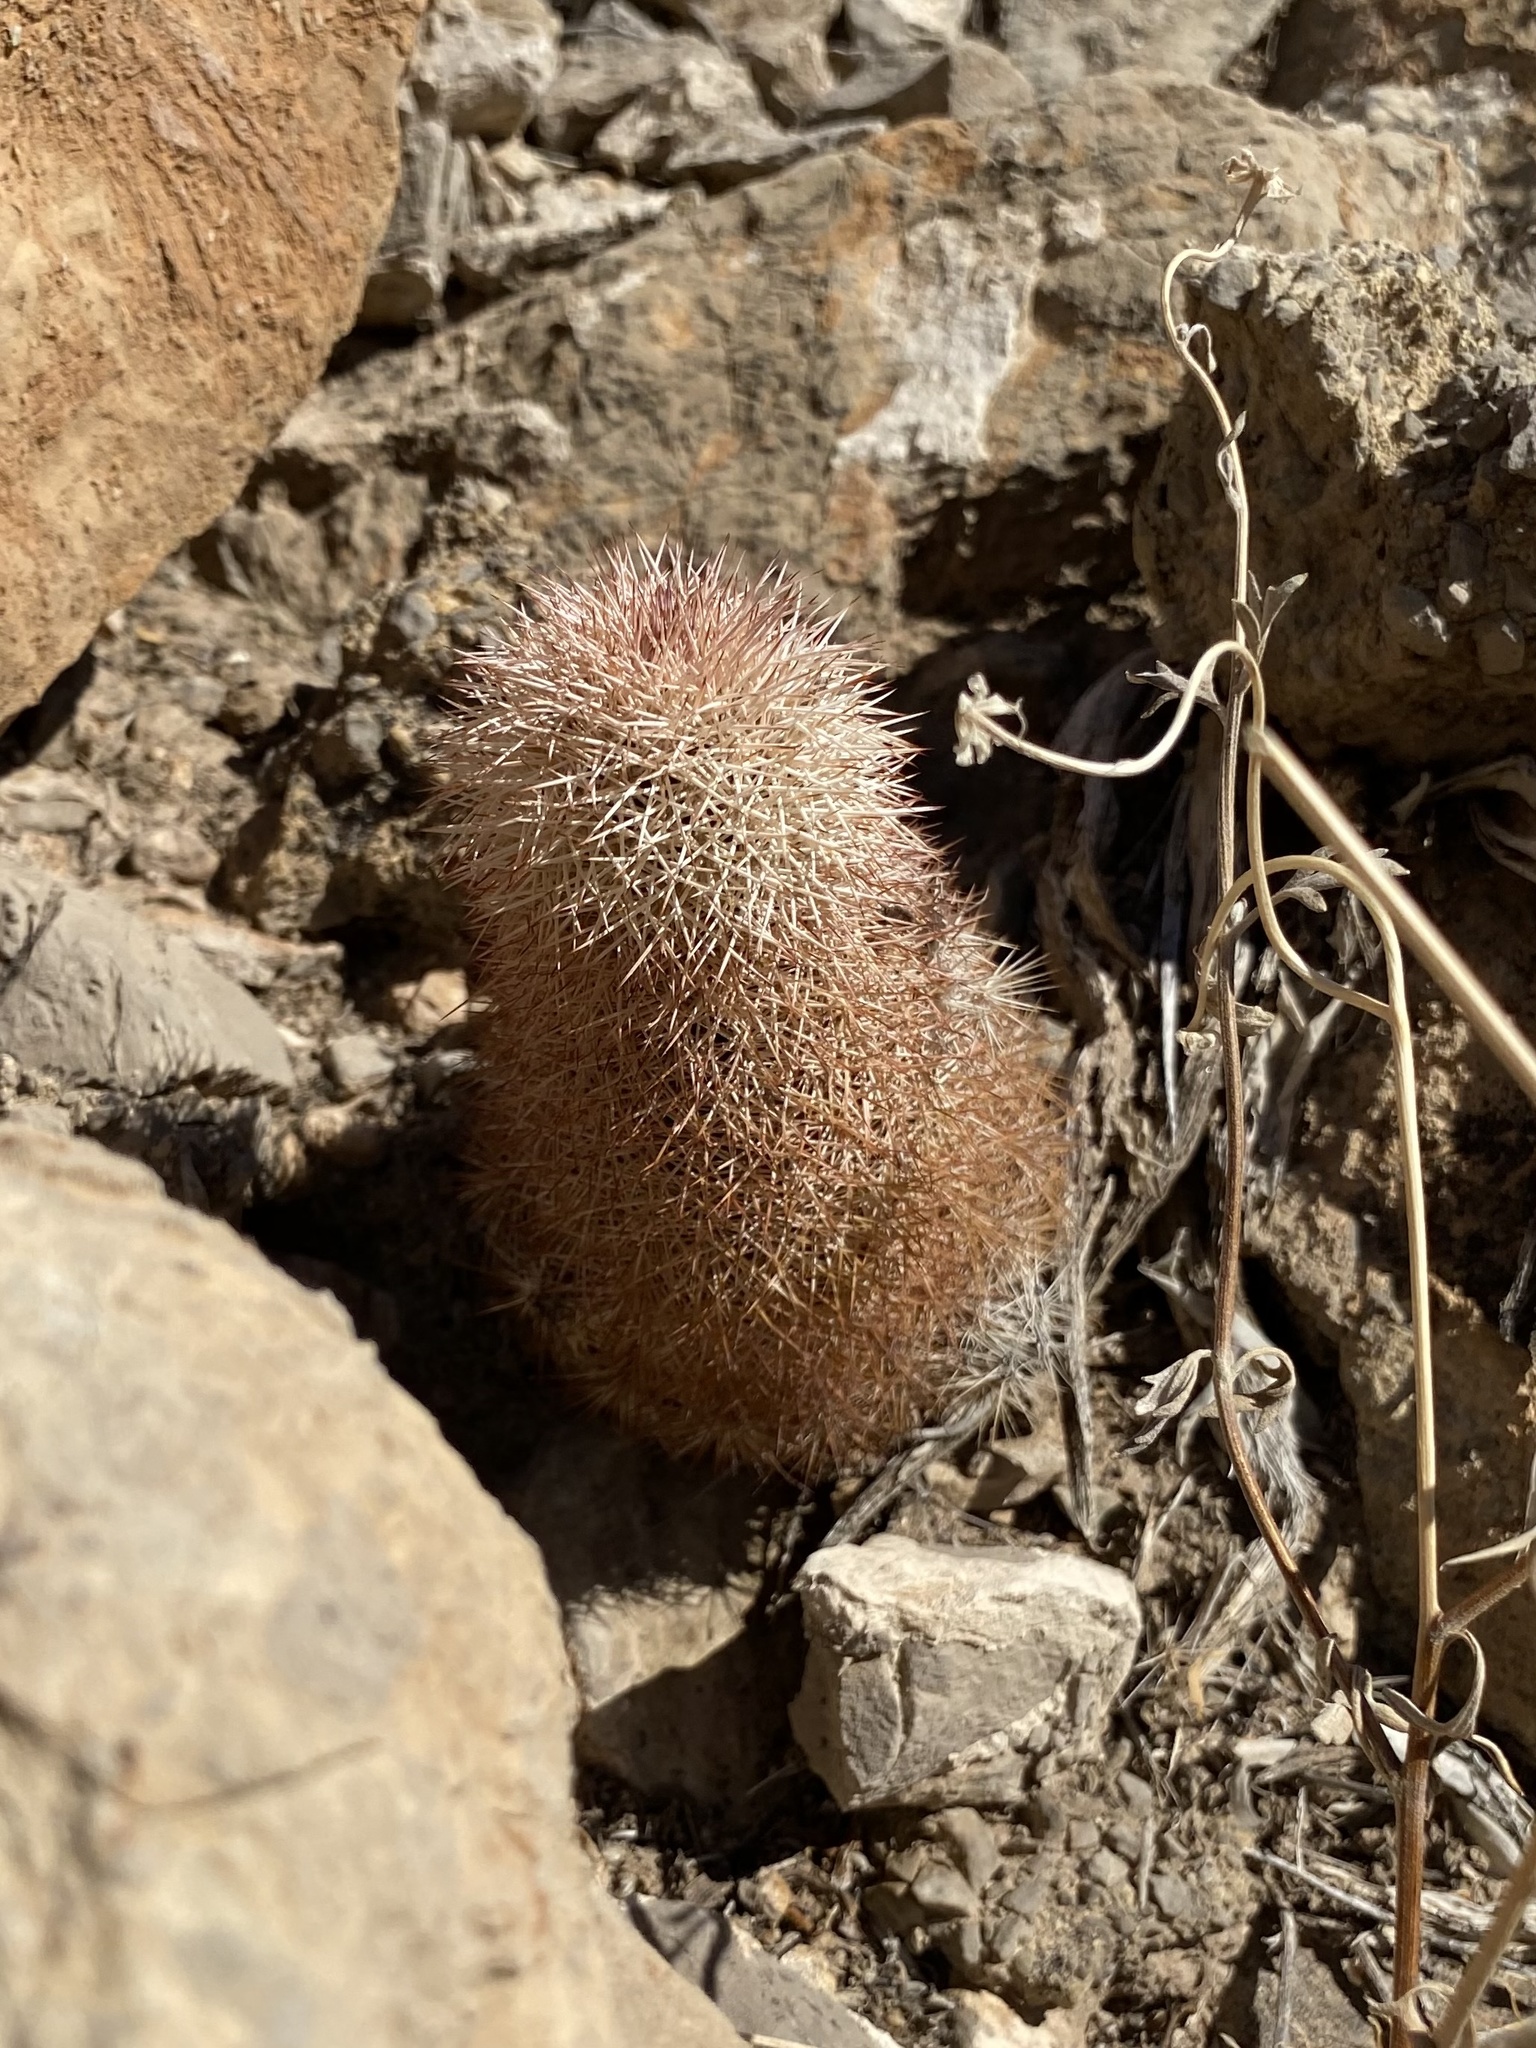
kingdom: Plantae
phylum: Tracheophyta
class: Magnoliopsida
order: Caryophyllales
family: Cactaceae
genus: Echinocereus
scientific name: Echinocereus dasyacanthus
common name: Spiny hedgehog cactus
